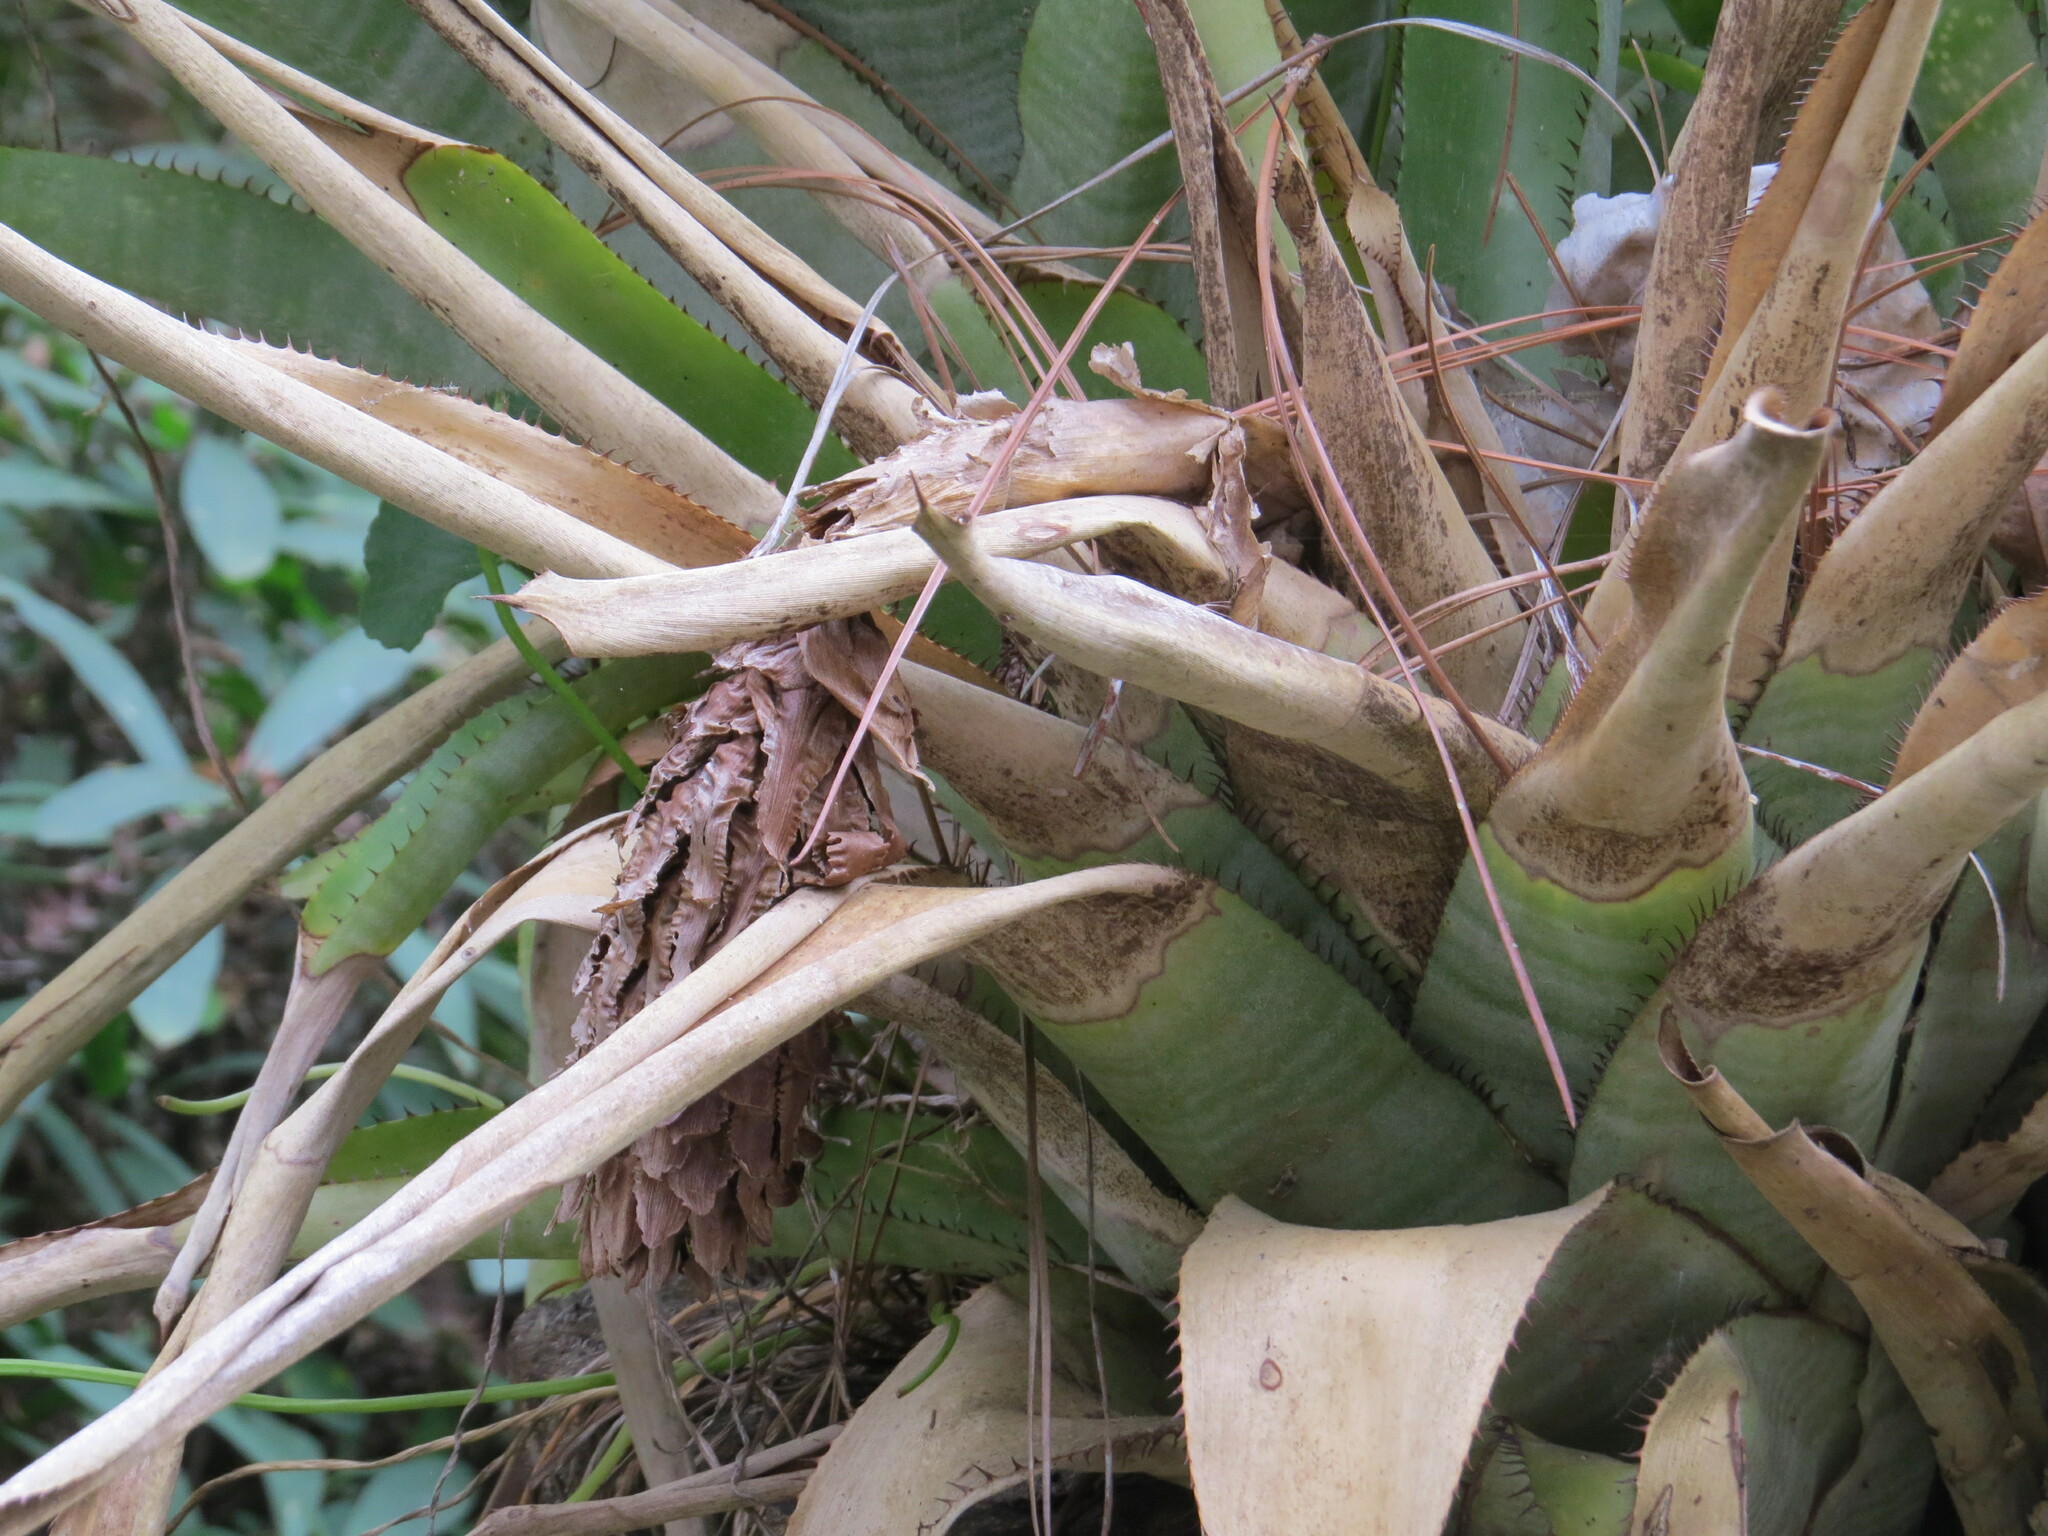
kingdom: Plantae
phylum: Tracheophyta
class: Liliopsida
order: Poales
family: Bromeliaceae
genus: Quesnelia
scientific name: Quesnelia quesneliana
